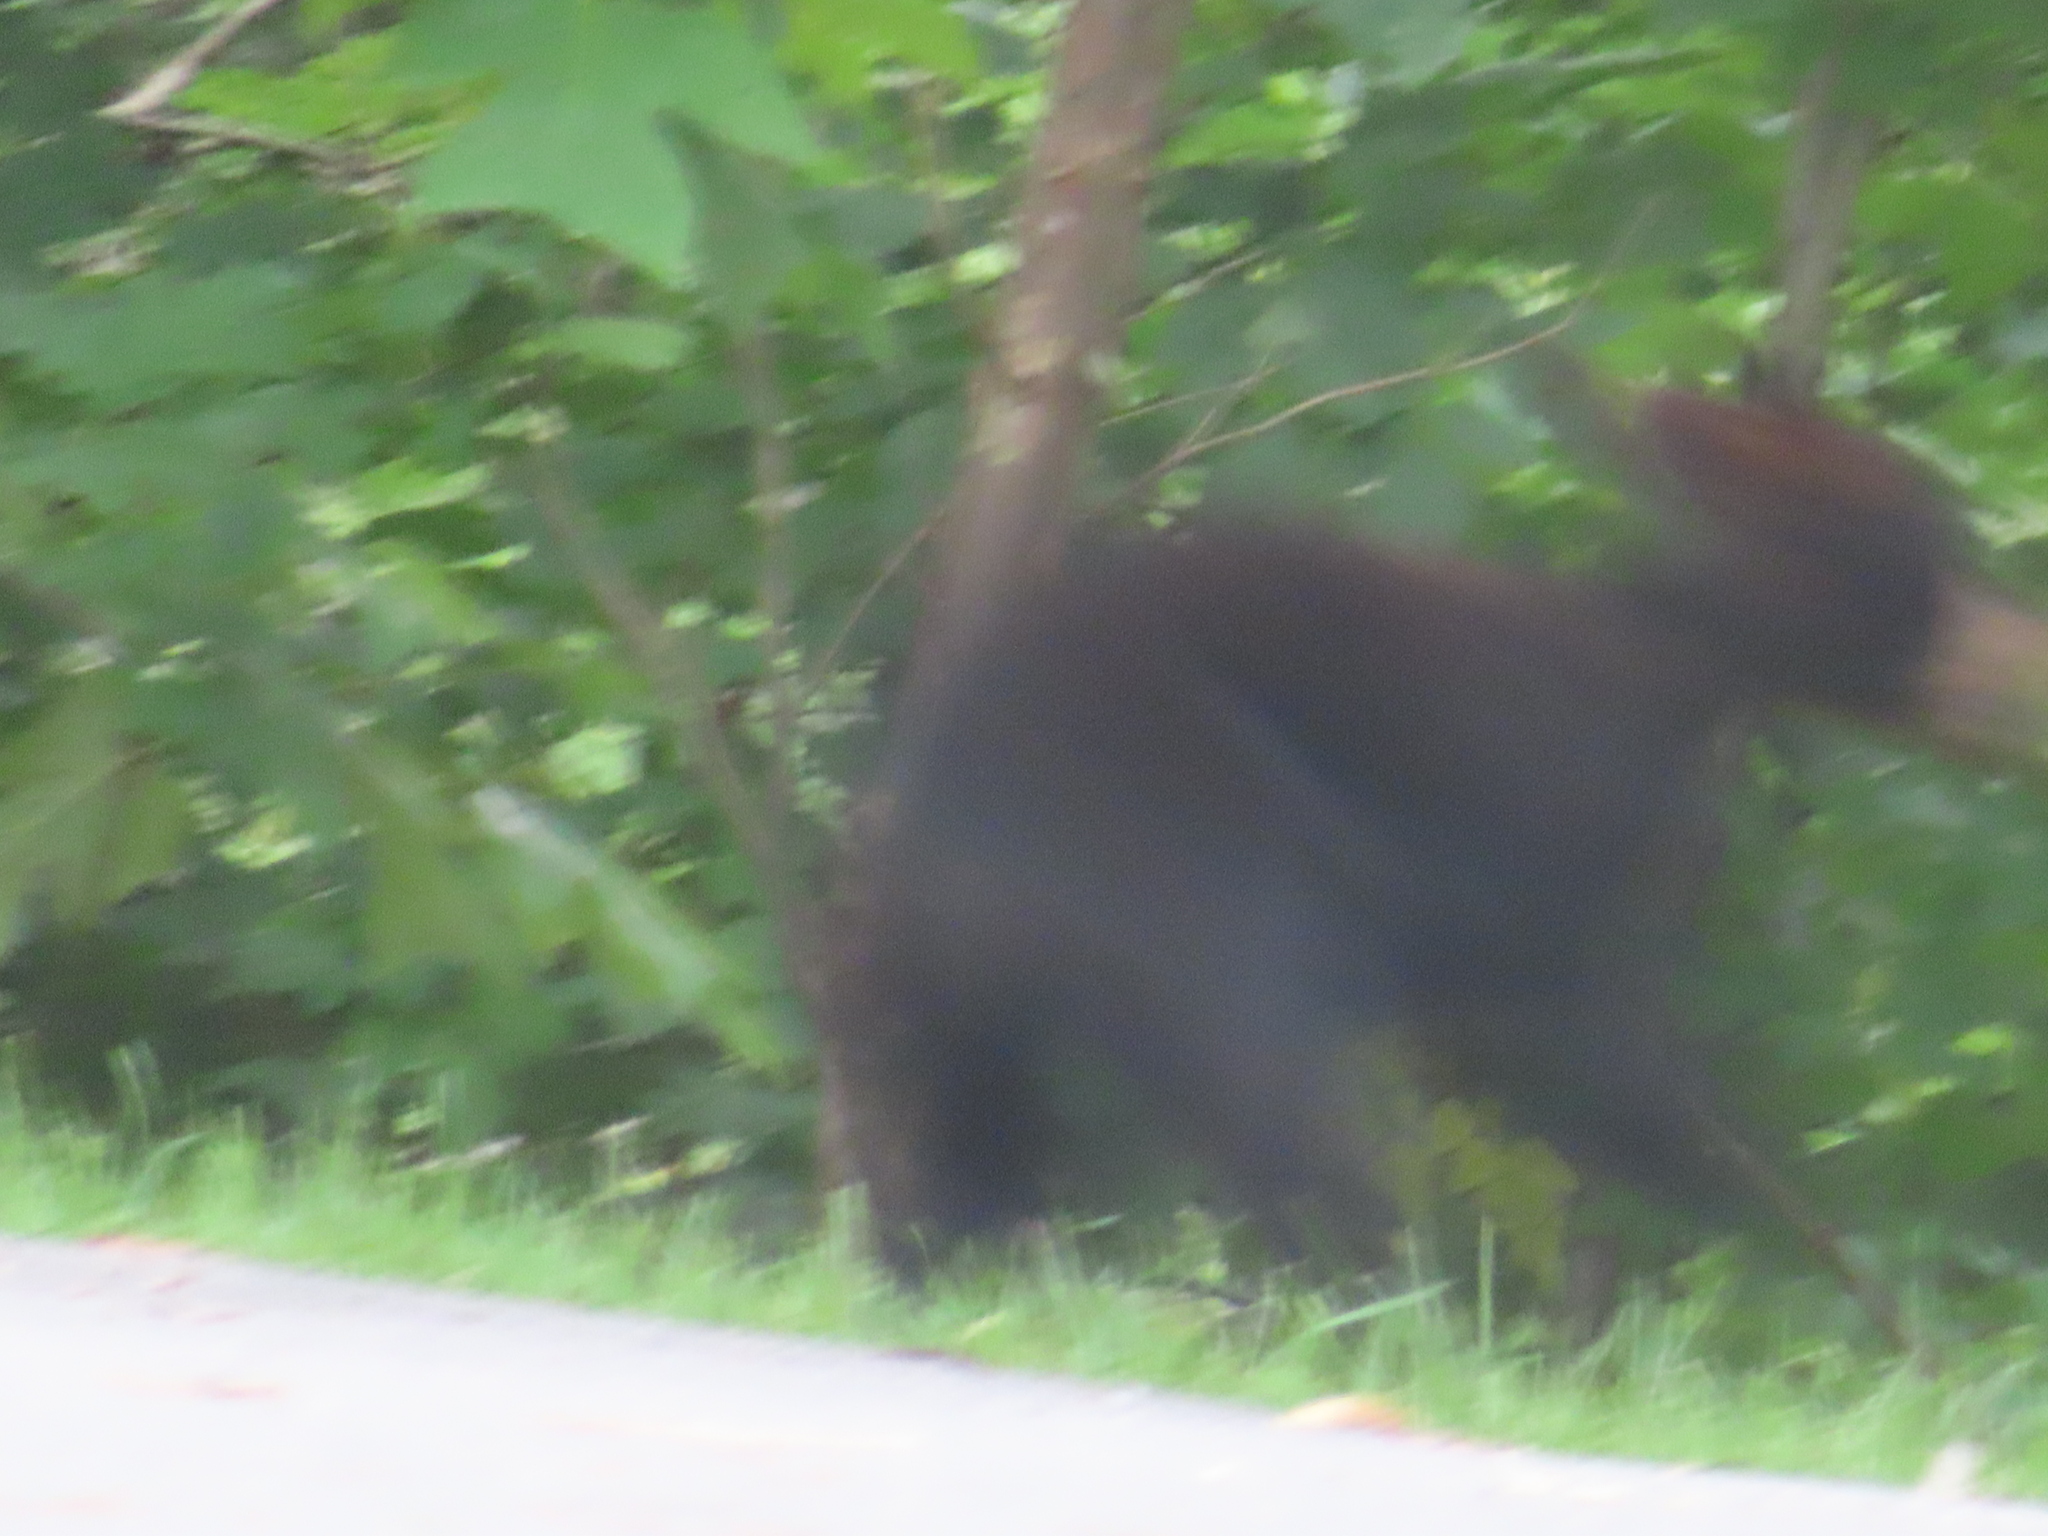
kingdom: Animalia
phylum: Chordata
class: Mammalia
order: Carnivora
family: Ursidae
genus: Ursus
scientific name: Ursus americanus
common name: American black bear
